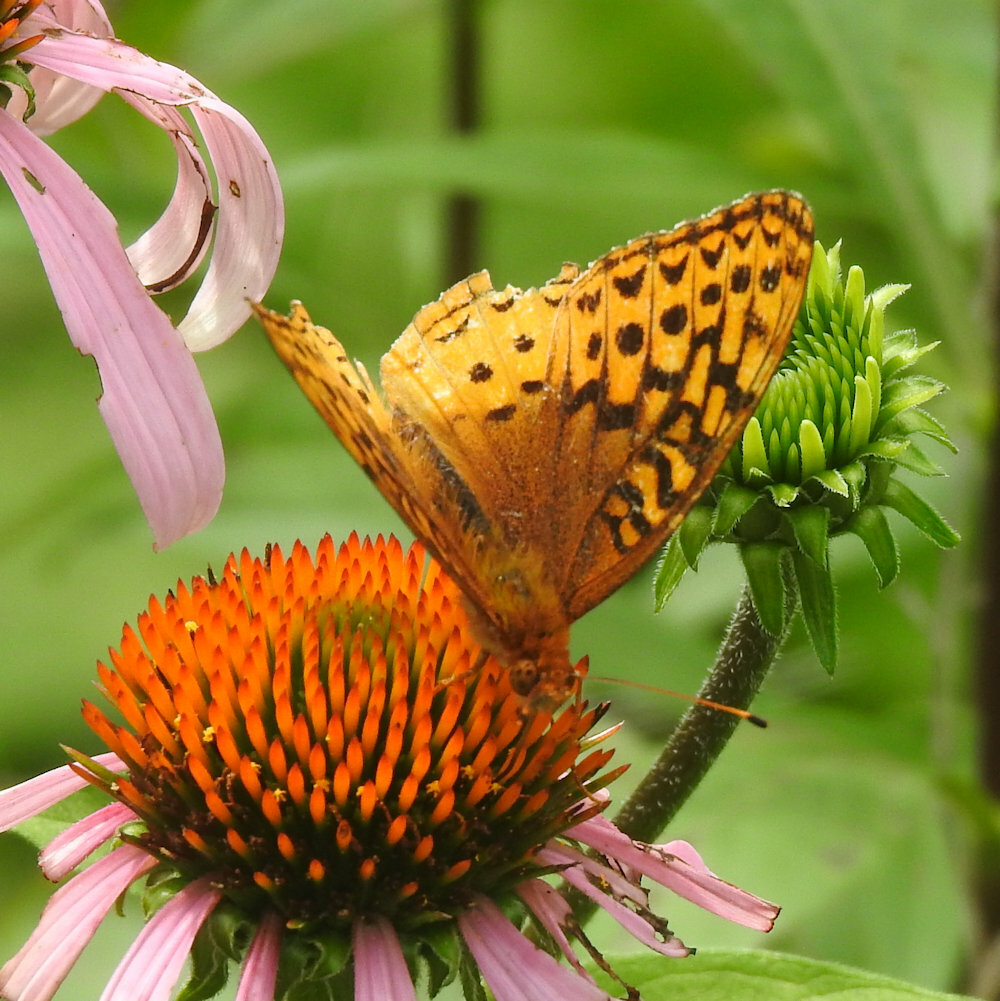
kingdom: Animalia
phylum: Arthropoda
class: Insecta
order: Lepidoptera
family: Nymphalidae
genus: Speyeria
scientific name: Speyeria cybele
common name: Great spangled fritillary
